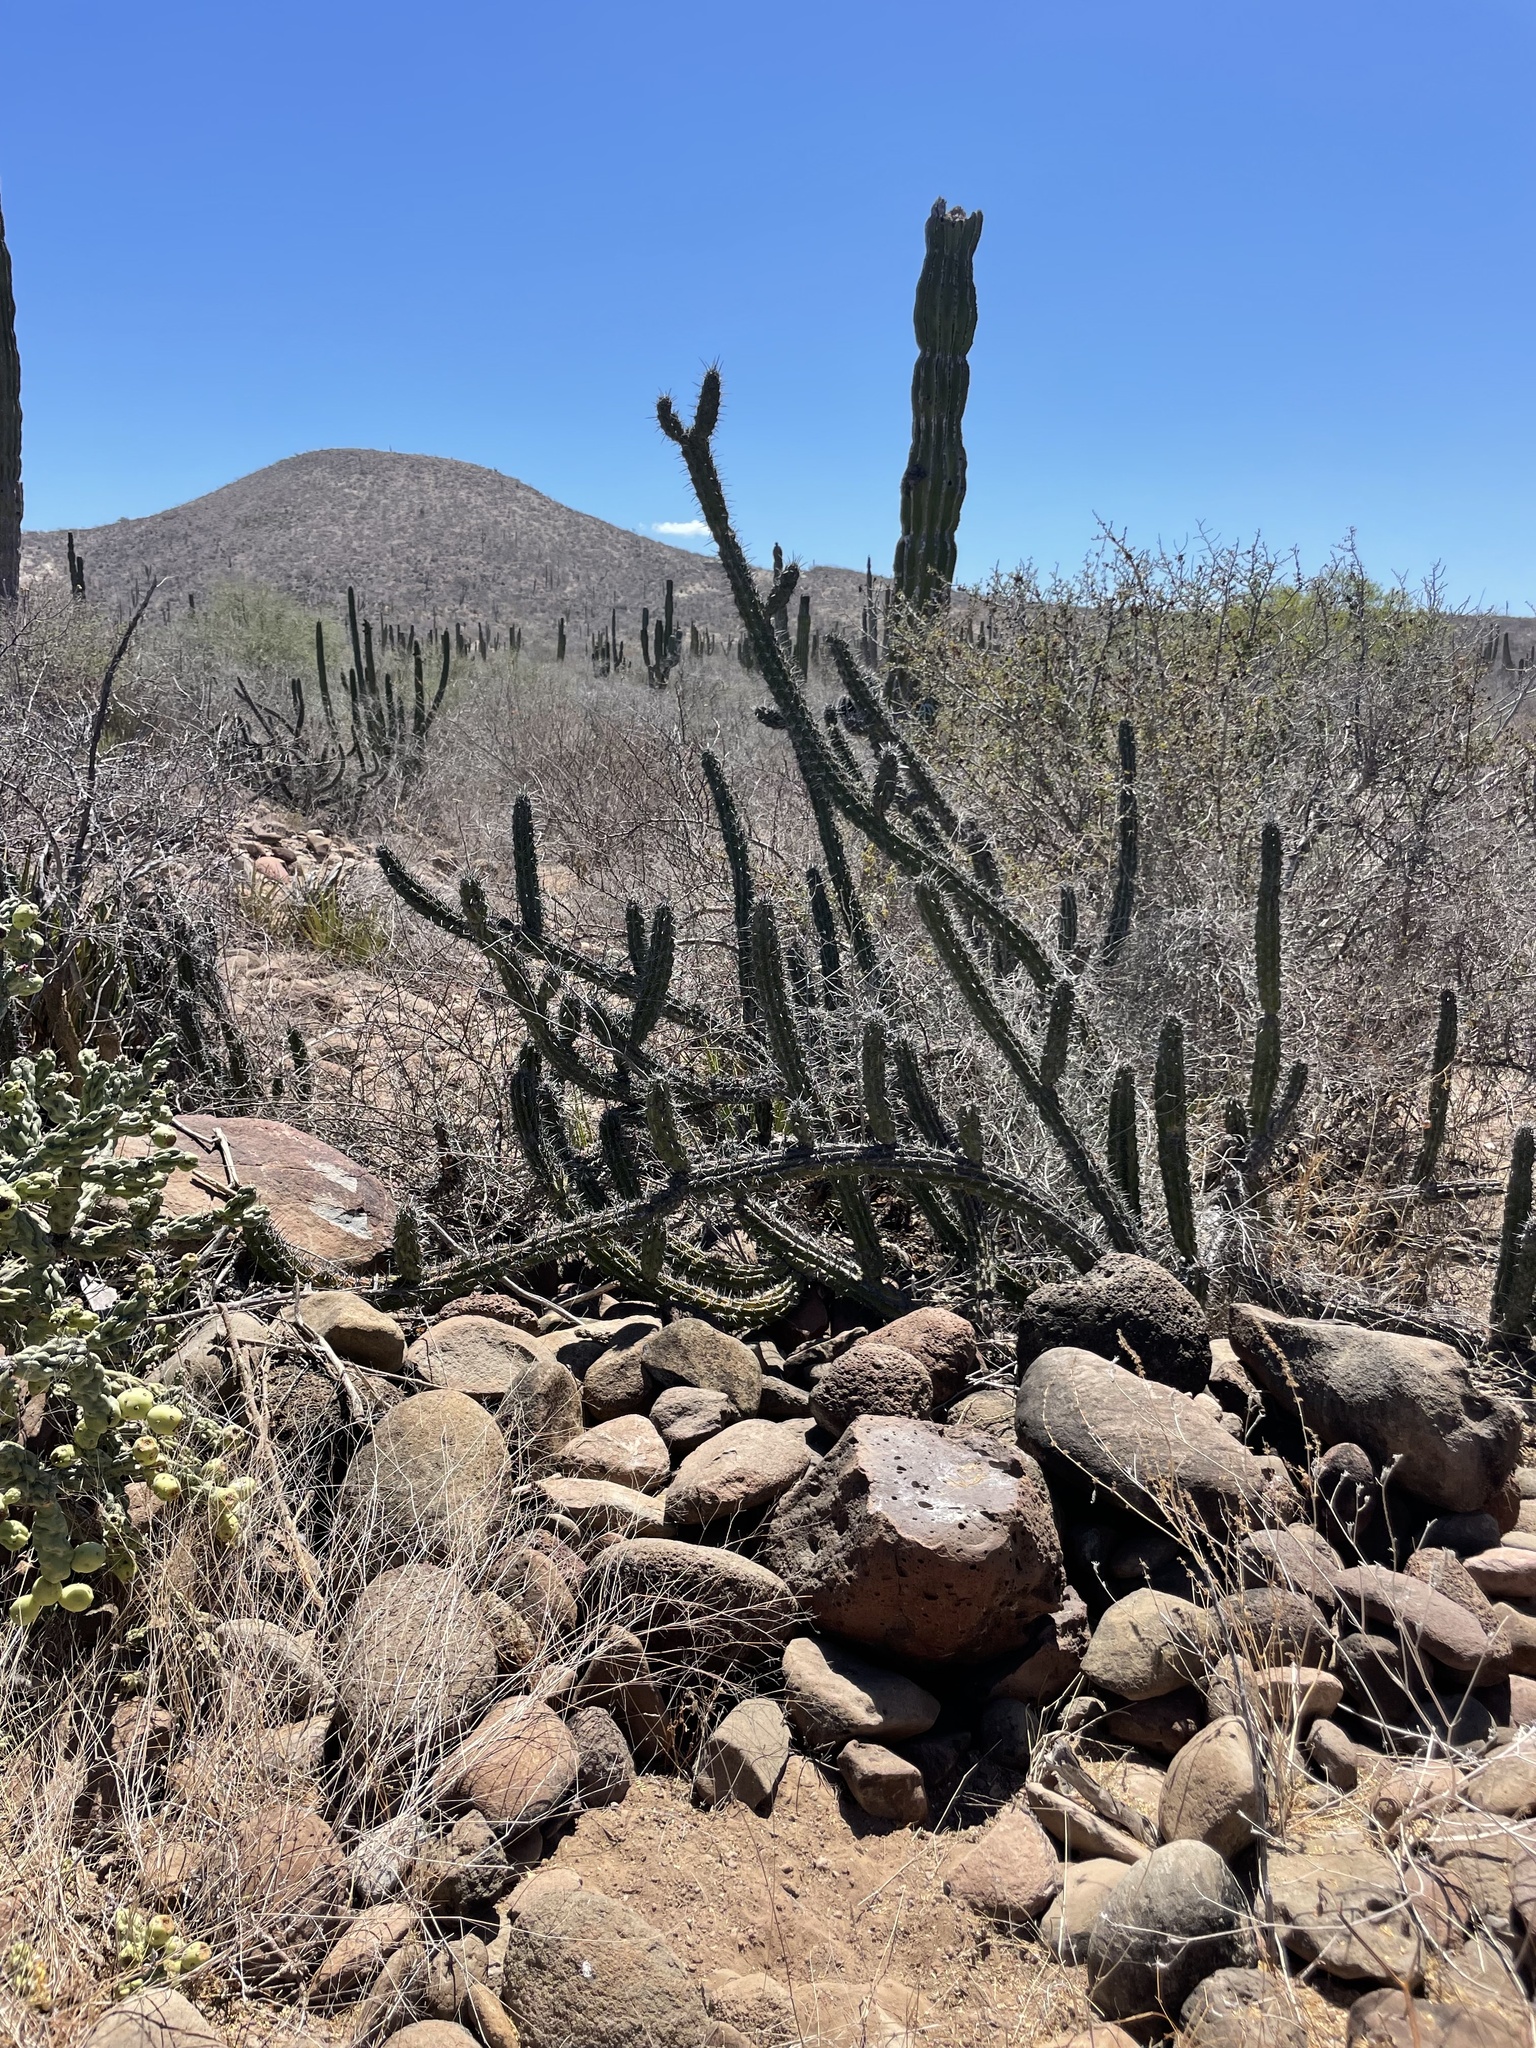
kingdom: Plantae
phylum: Tracheophyta
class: Magnoliopsida
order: Caryophyllales
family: Cactaceae
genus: Stenocereus
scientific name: Stenocereus gummosus
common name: Dagger cactus
